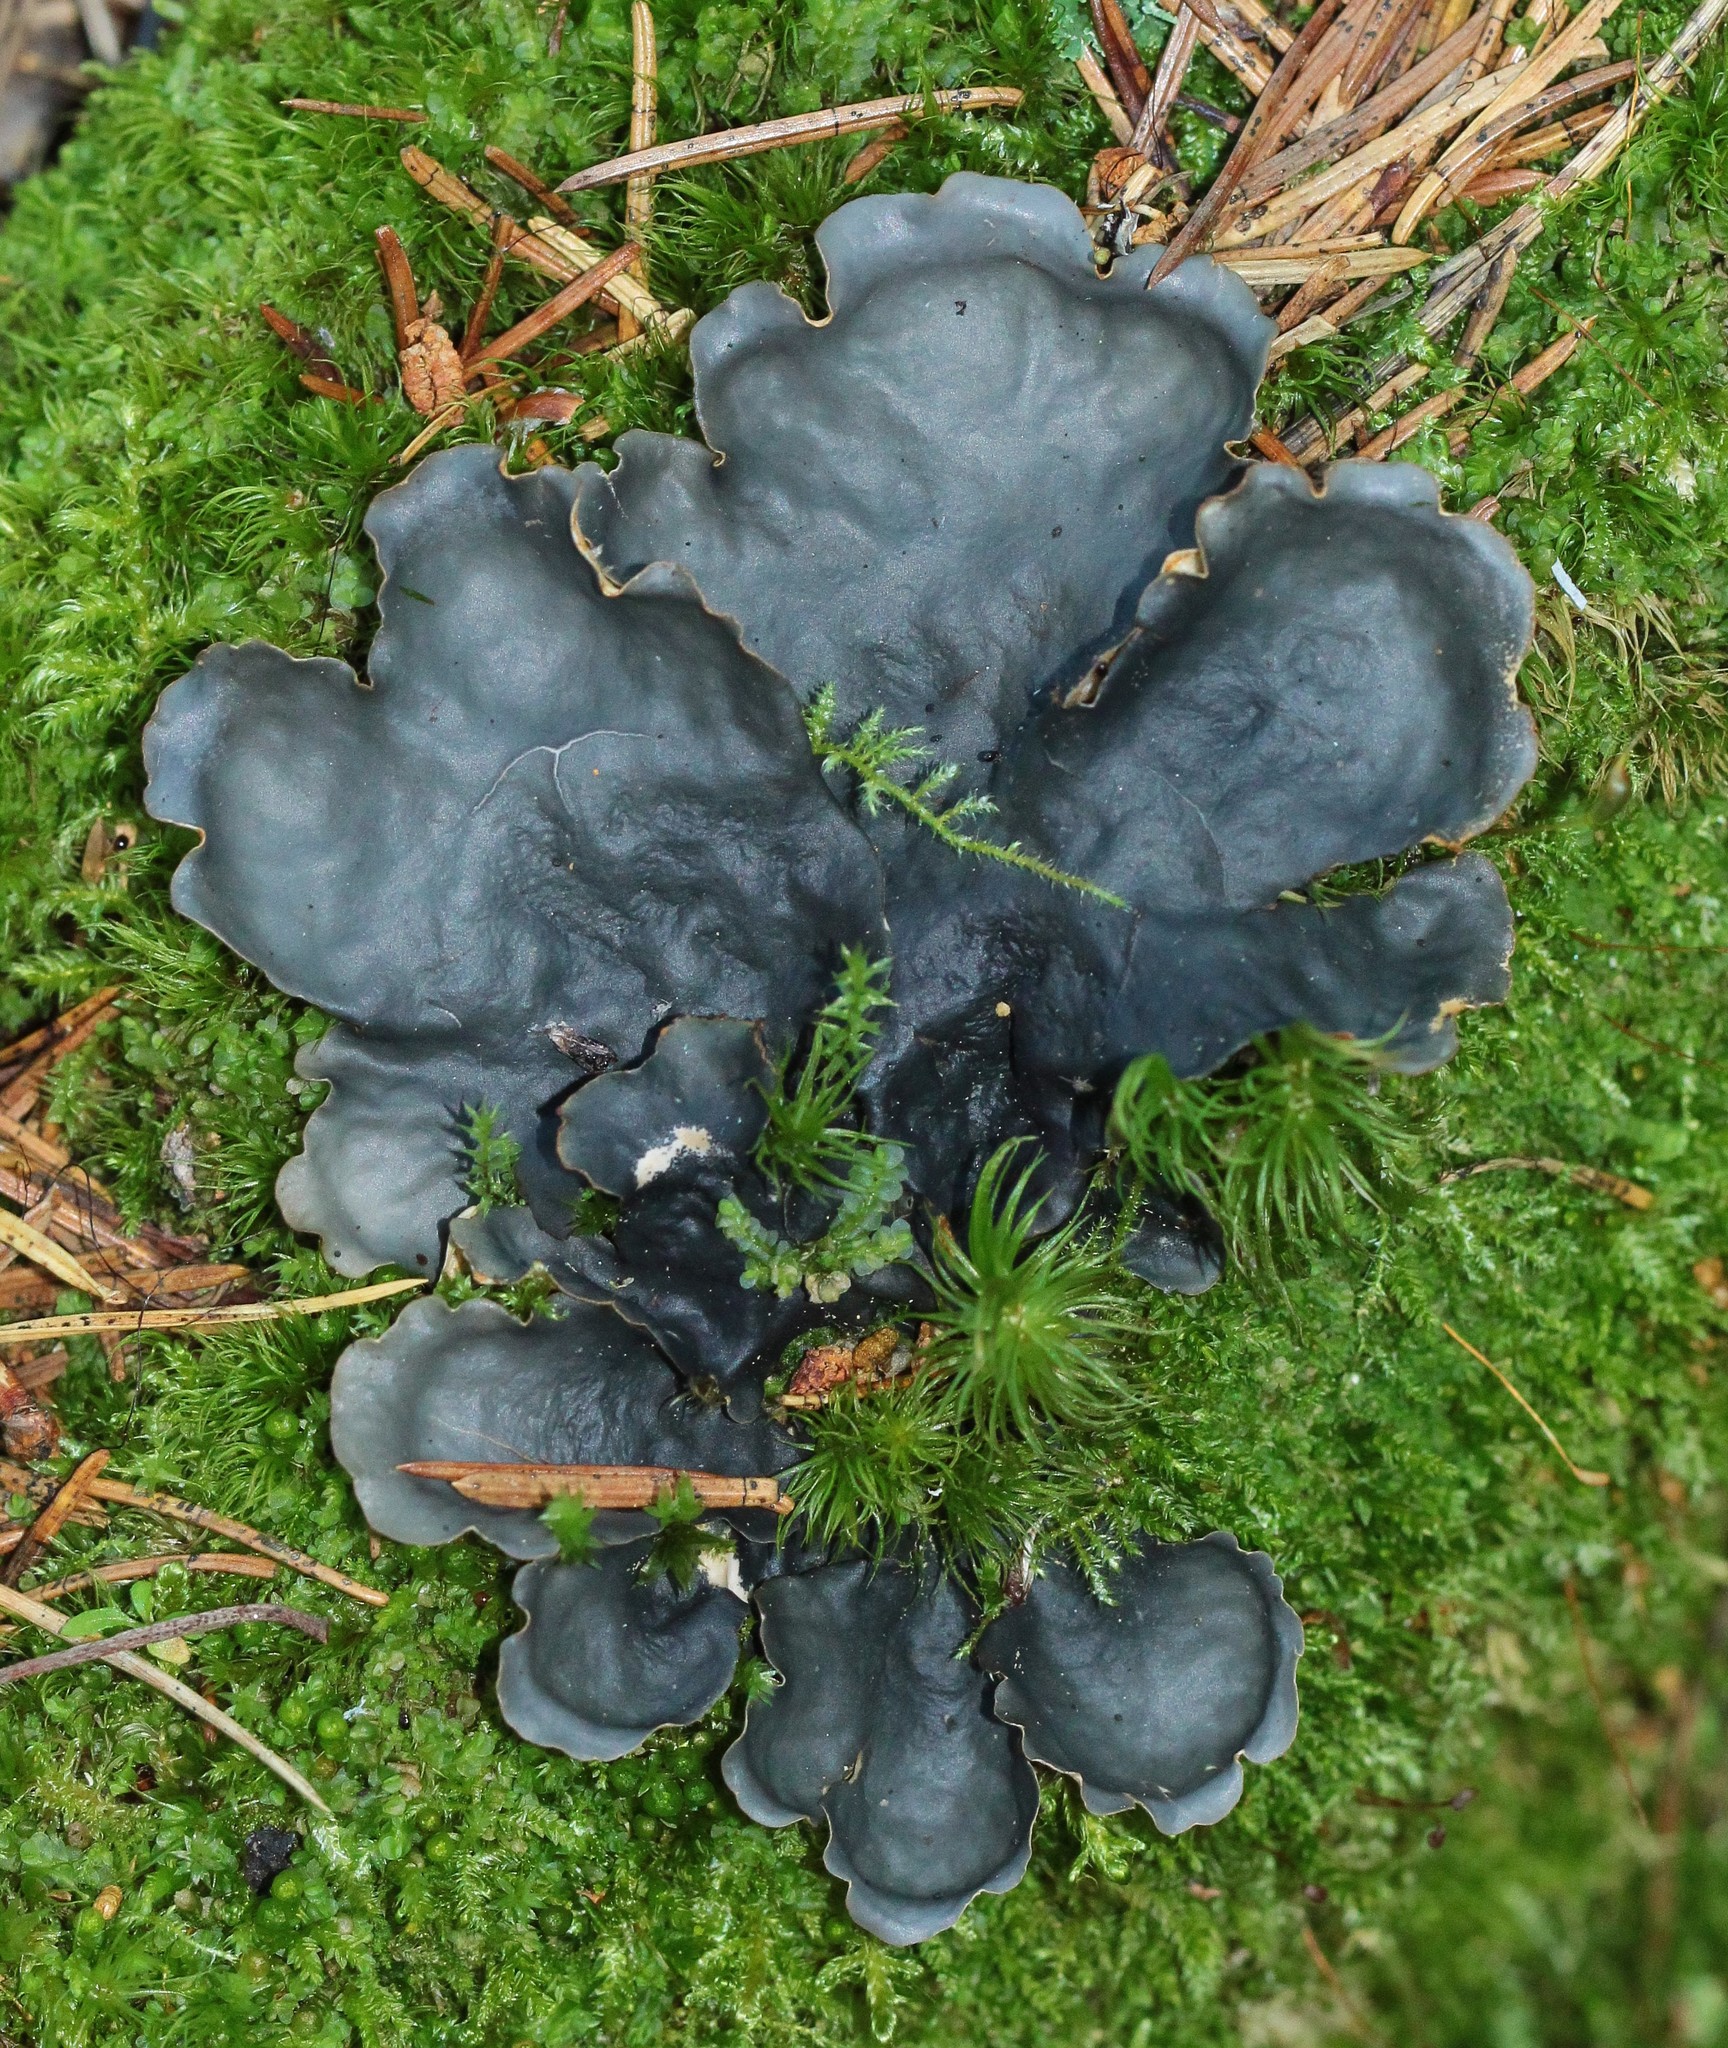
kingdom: Fungi
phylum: Ascomycota
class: Lecanoromycetes
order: Peltigerales
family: Peltigeraceae
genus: Peltigera
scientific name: Peltigera neopolydactyla
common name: Carpet pelt
